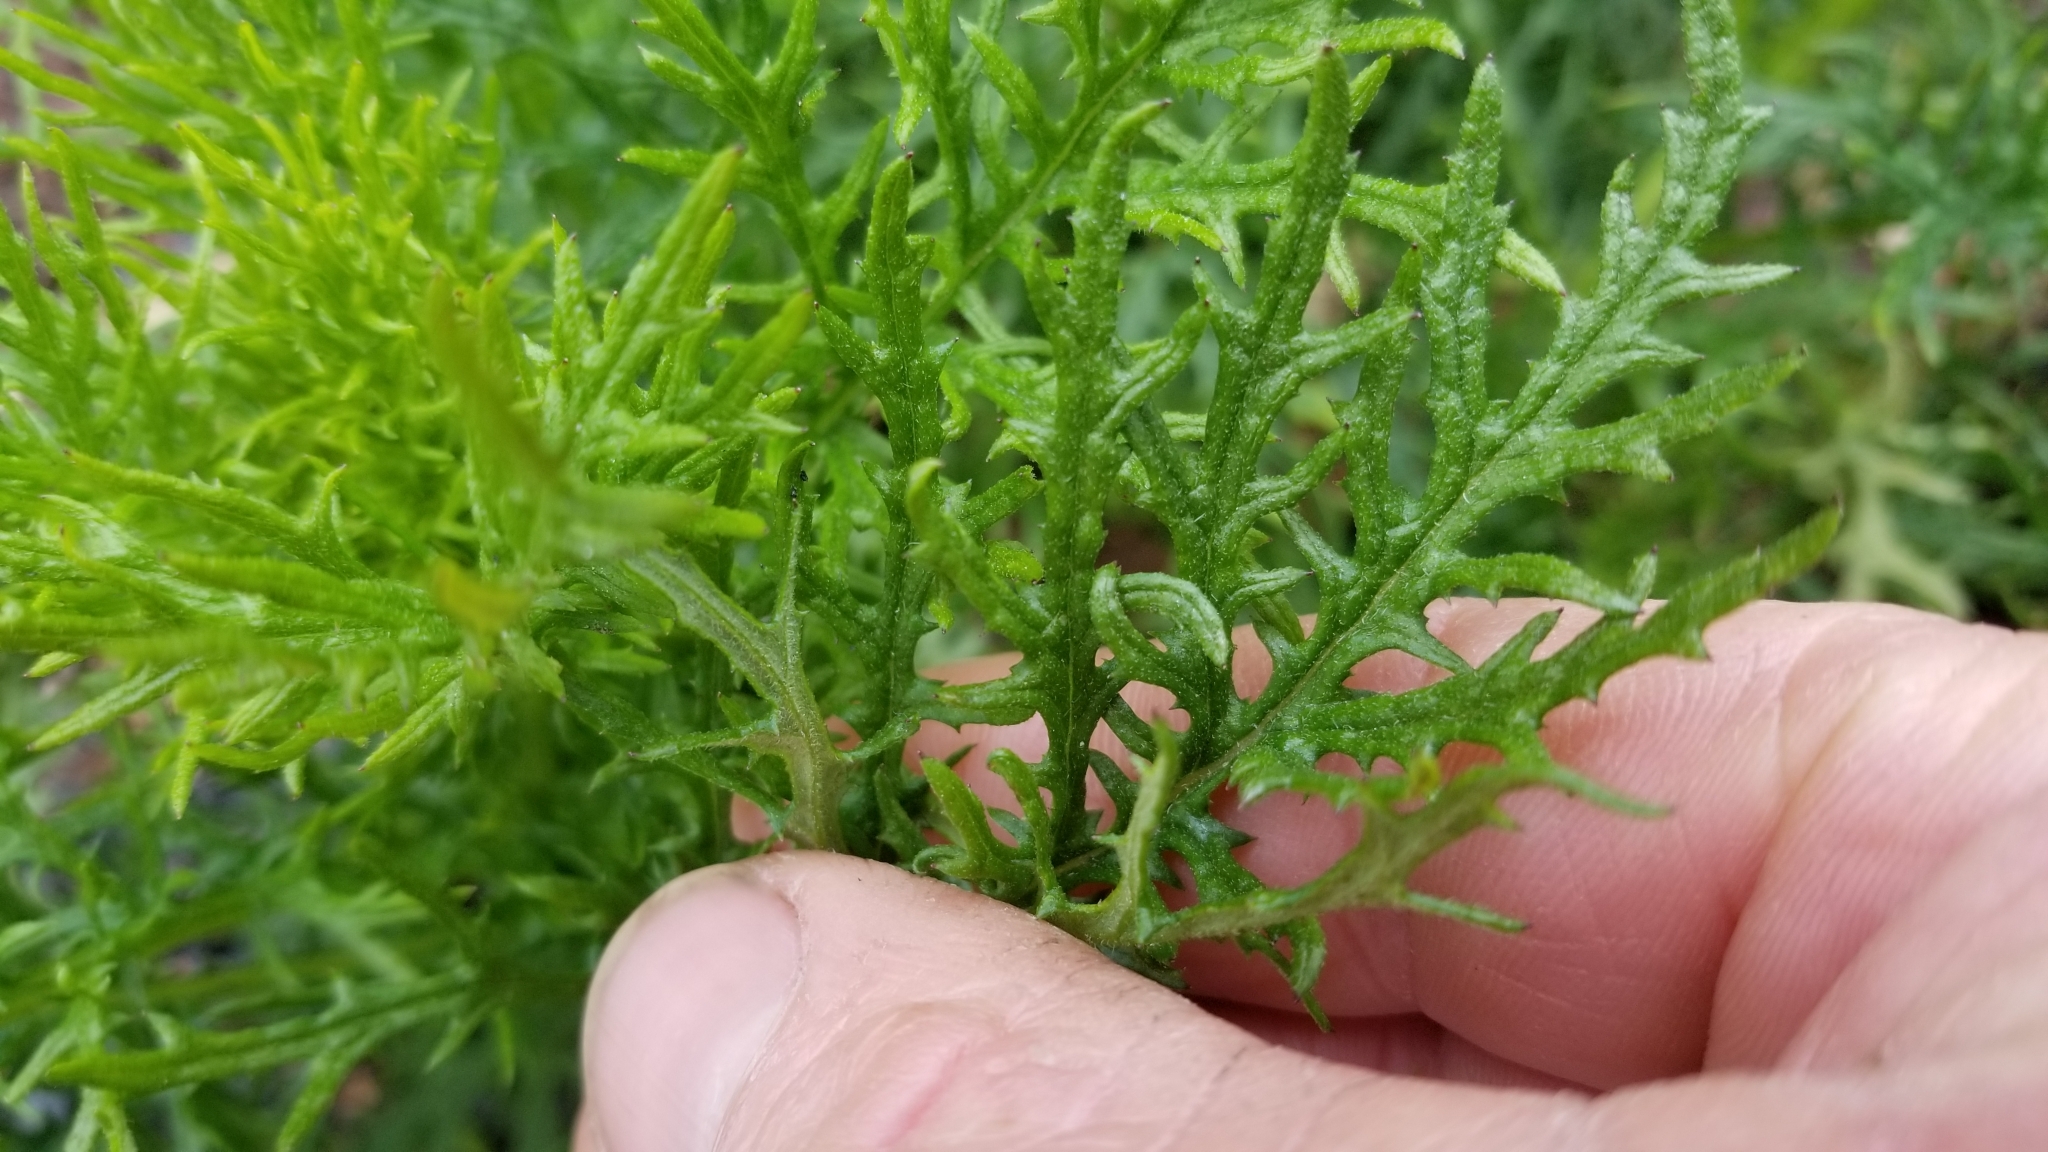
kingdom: Plantae
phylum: Tracheophyta
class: Magnoliopsida
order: Asterales
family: Asteraceae
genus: Senecio
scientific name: Senecio bipinnatisectus
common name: Australian fireweed
